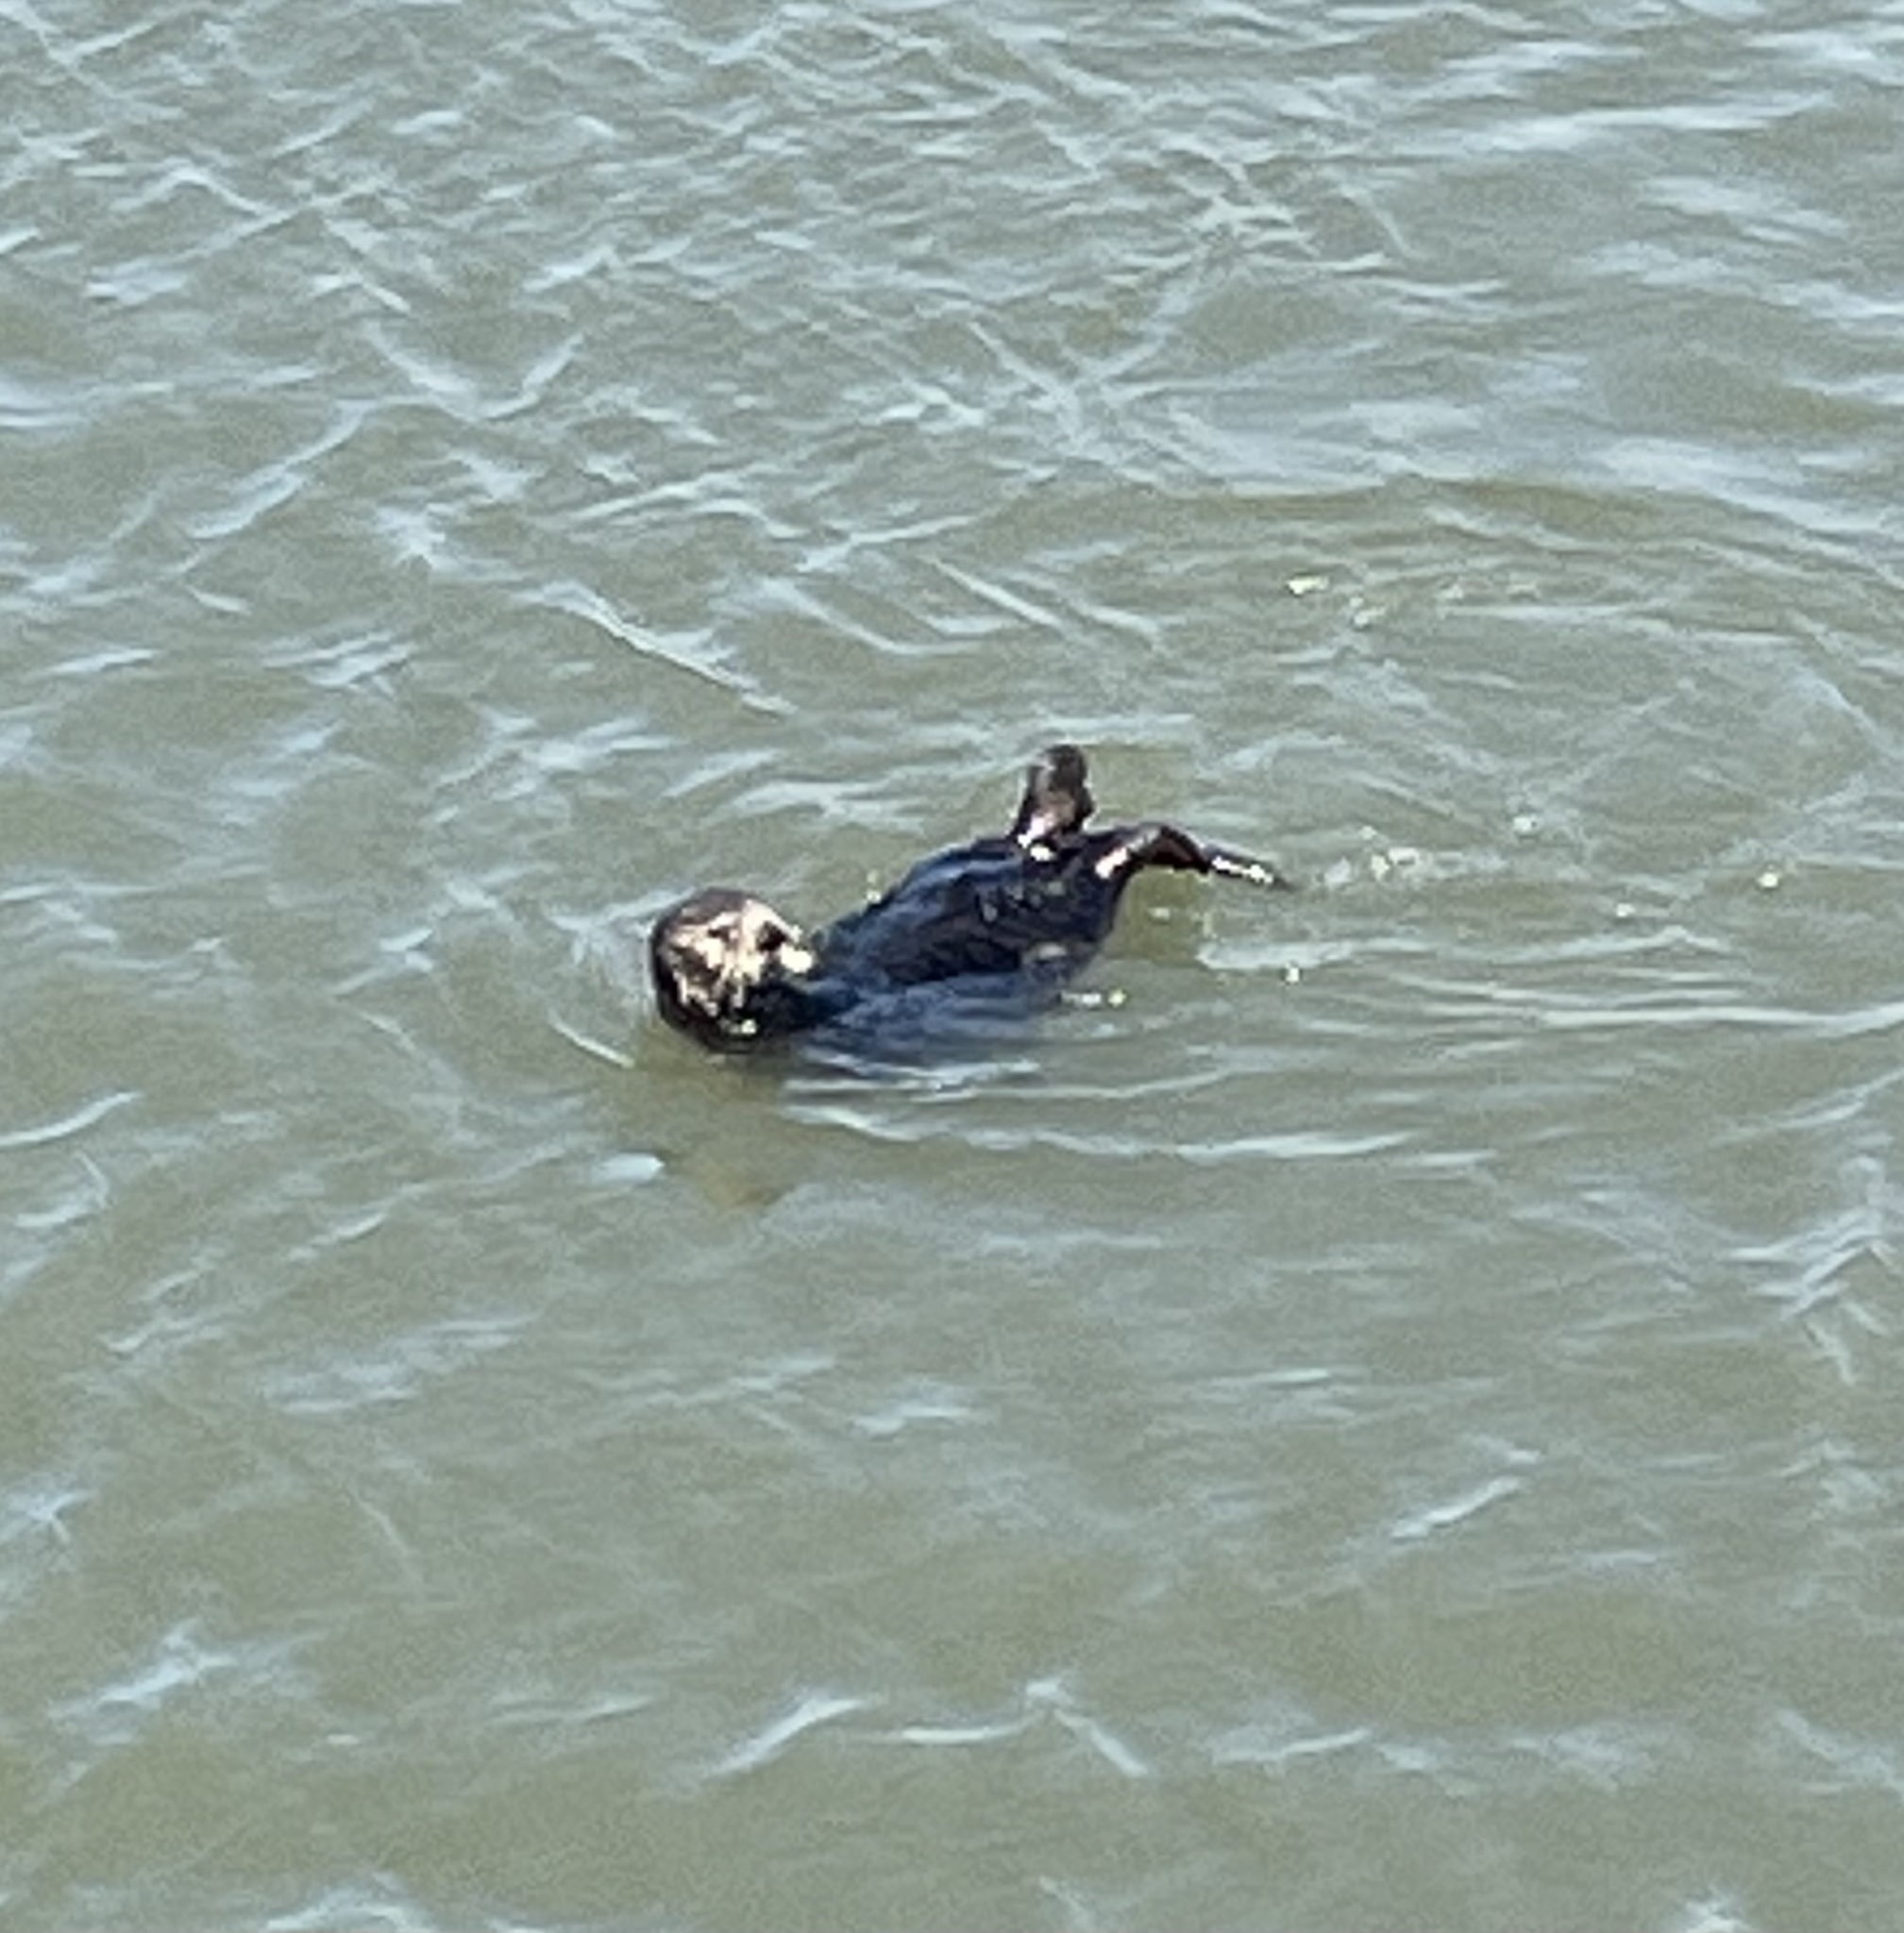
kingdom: Animalia
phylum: Chordata
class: Mammalia
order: Carnivora
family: Mustelidae
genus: Enhydra
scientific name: Enhydra lutris
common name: Sea otter
